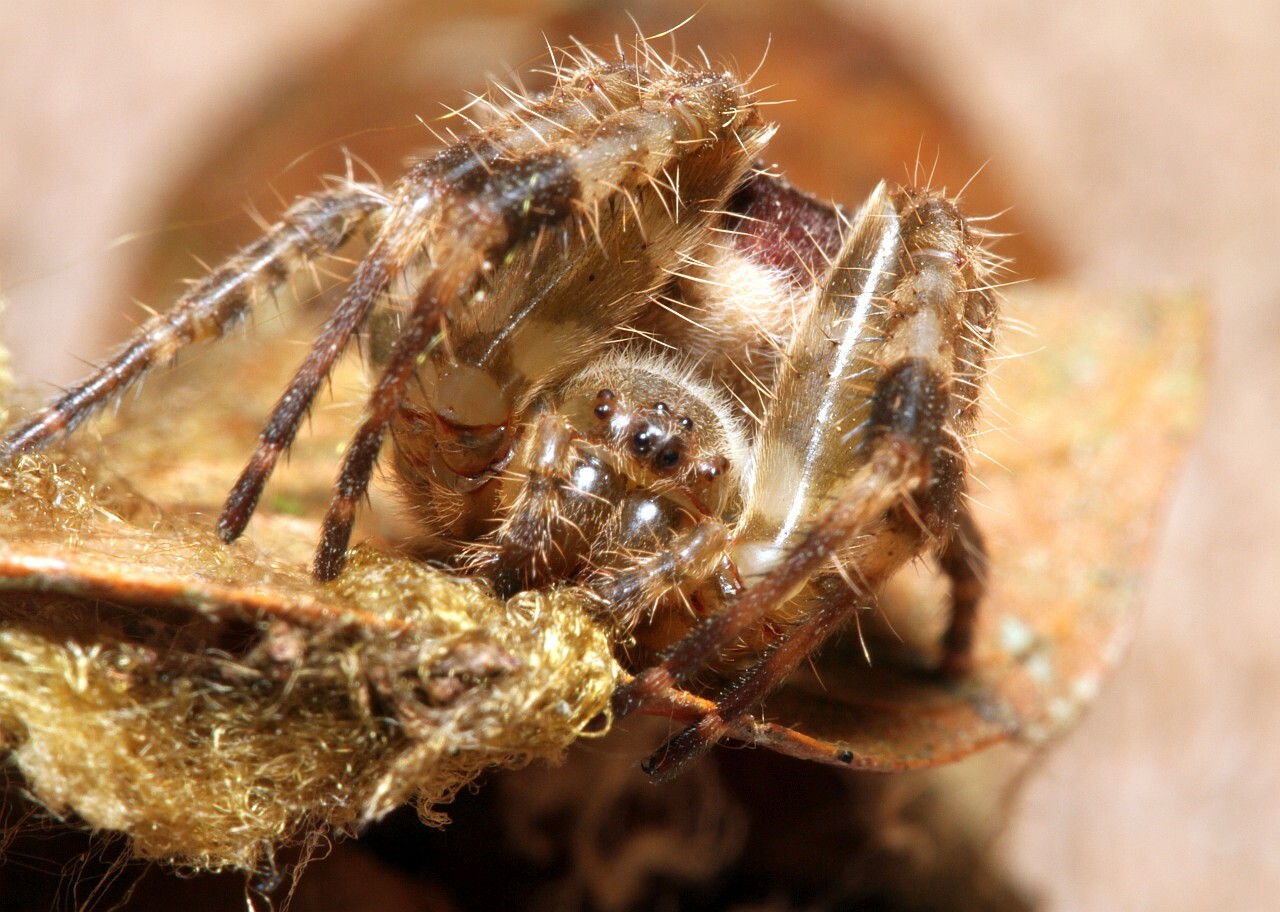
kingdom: Animalia
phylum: Arthropoda
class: Arachnida
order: Araneae
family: Araneidae
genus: Kapogea
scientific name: Kapogea sellata
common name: Orb weavers
